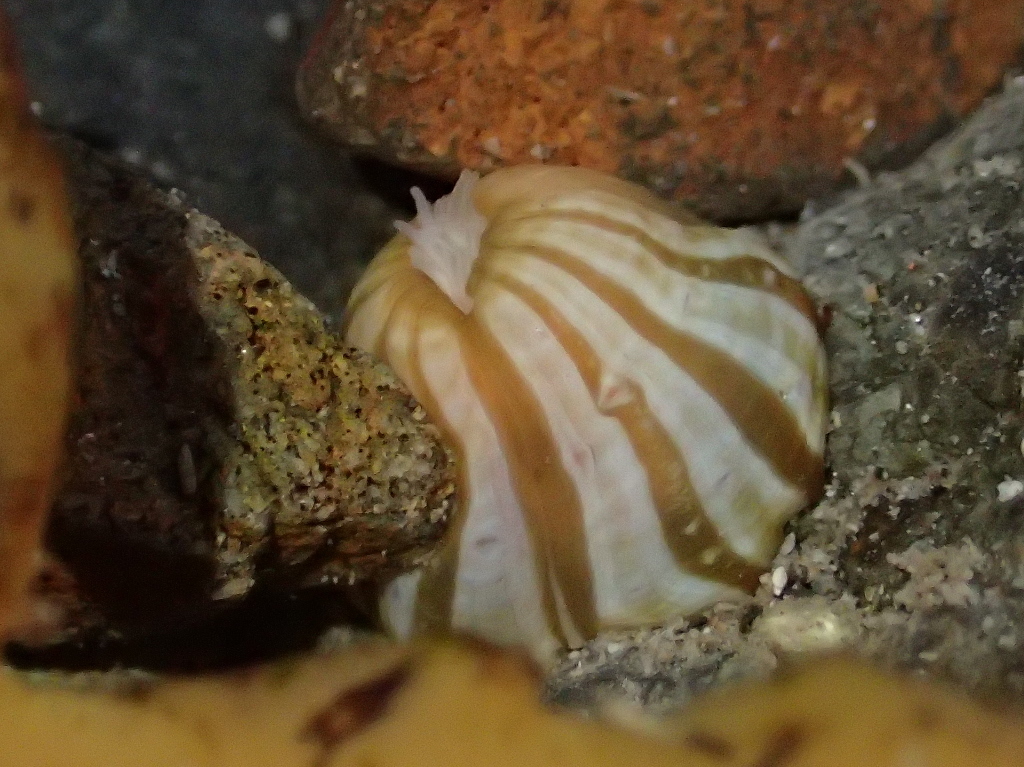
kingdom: Animalia
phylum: Cnidaria
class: Anthozoa
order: Actiniaria
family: Sagartiidae
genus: Anthothoe
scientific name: Anthothoe albocincta
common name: Orange striped anemone
